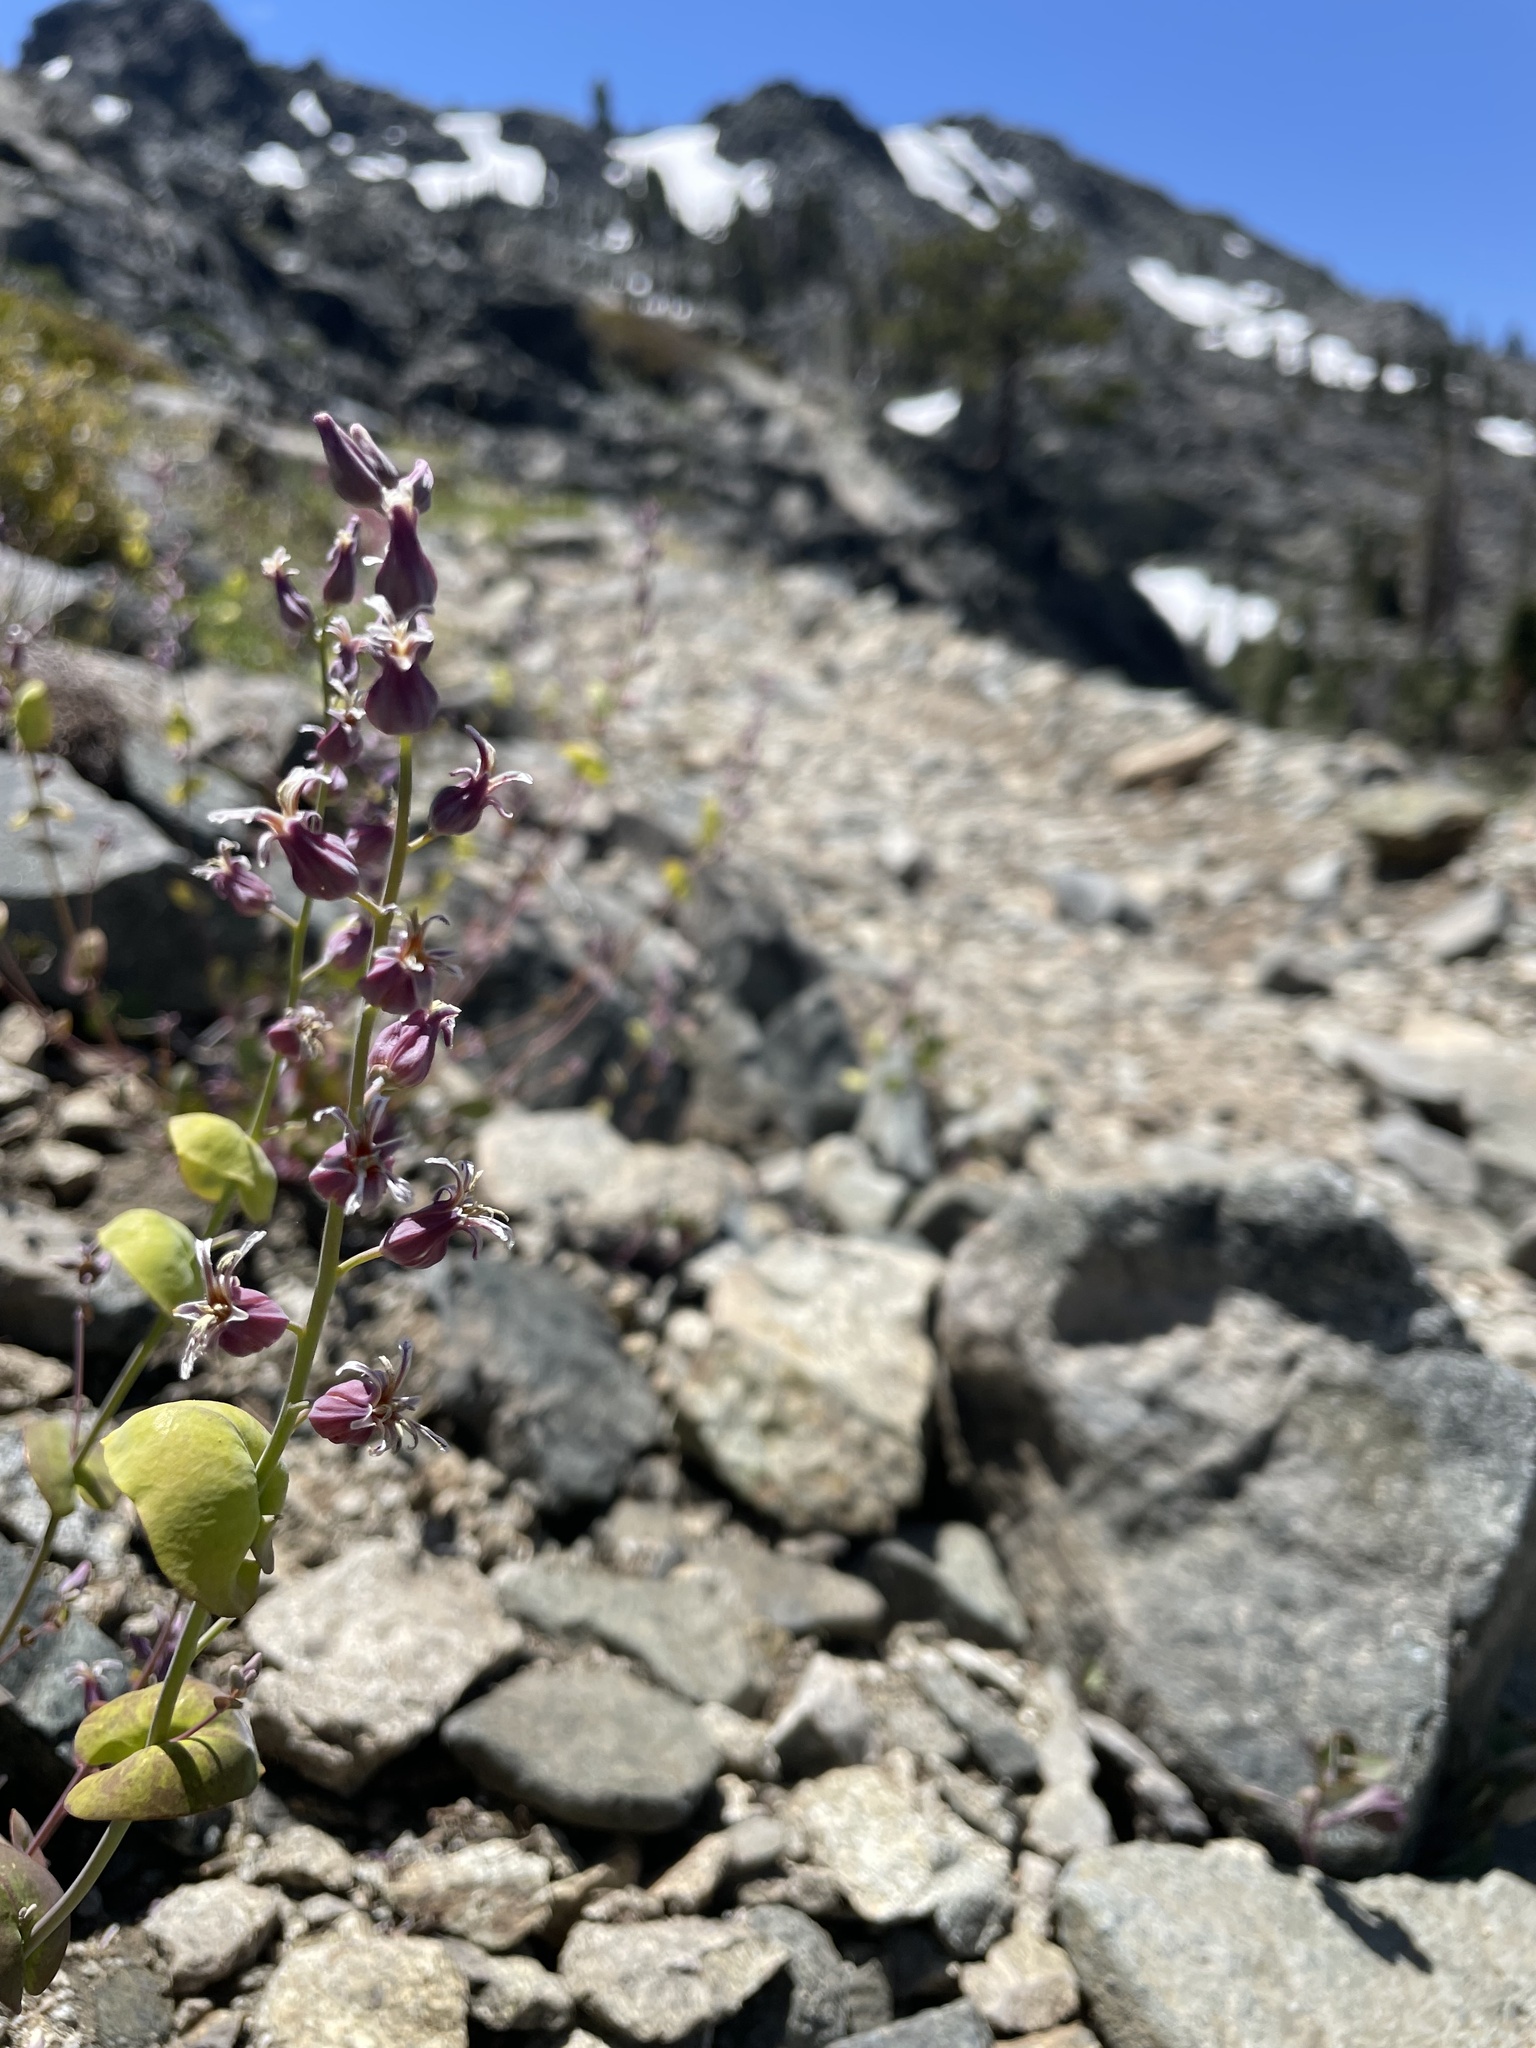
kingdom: Plantae
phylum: Tracheophyta
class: Magnoliopsida
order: Brassicales
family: Brassicaceae
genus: Streptanthus
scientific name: Streptanthus tortuosus
